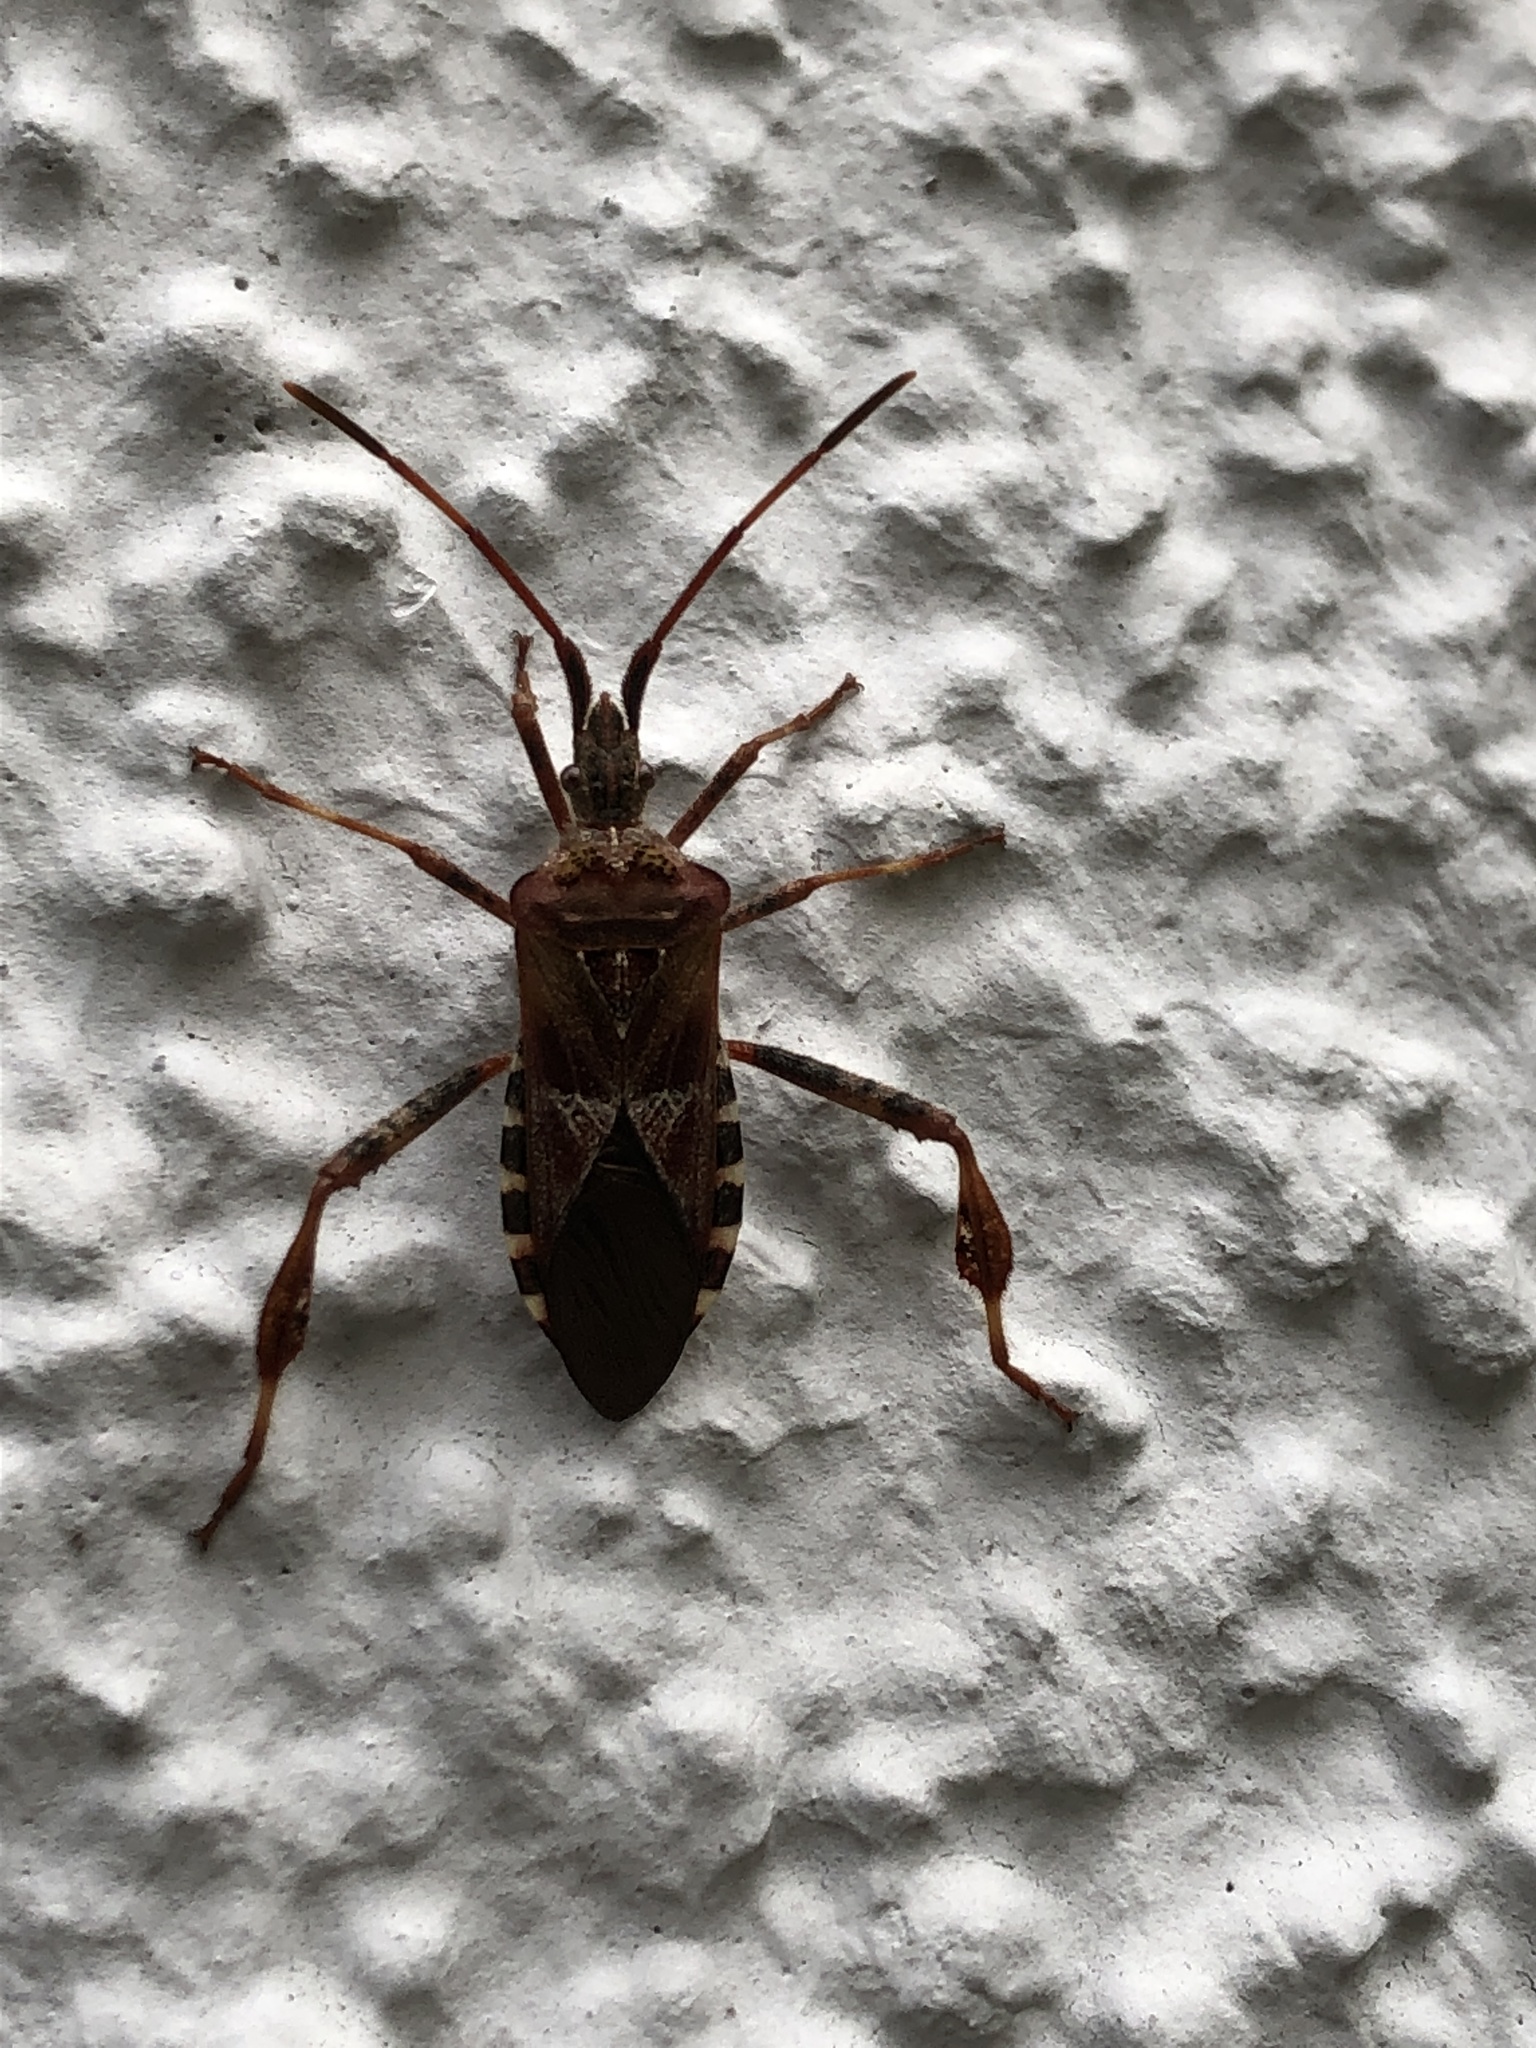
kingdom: Animalia
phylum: Arthropoda
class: Insecta
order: Hemiptera
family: Coreidae
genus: Leptoglossus
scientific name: Leptoglossus occidentalis
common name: Western conifer-seed bug
